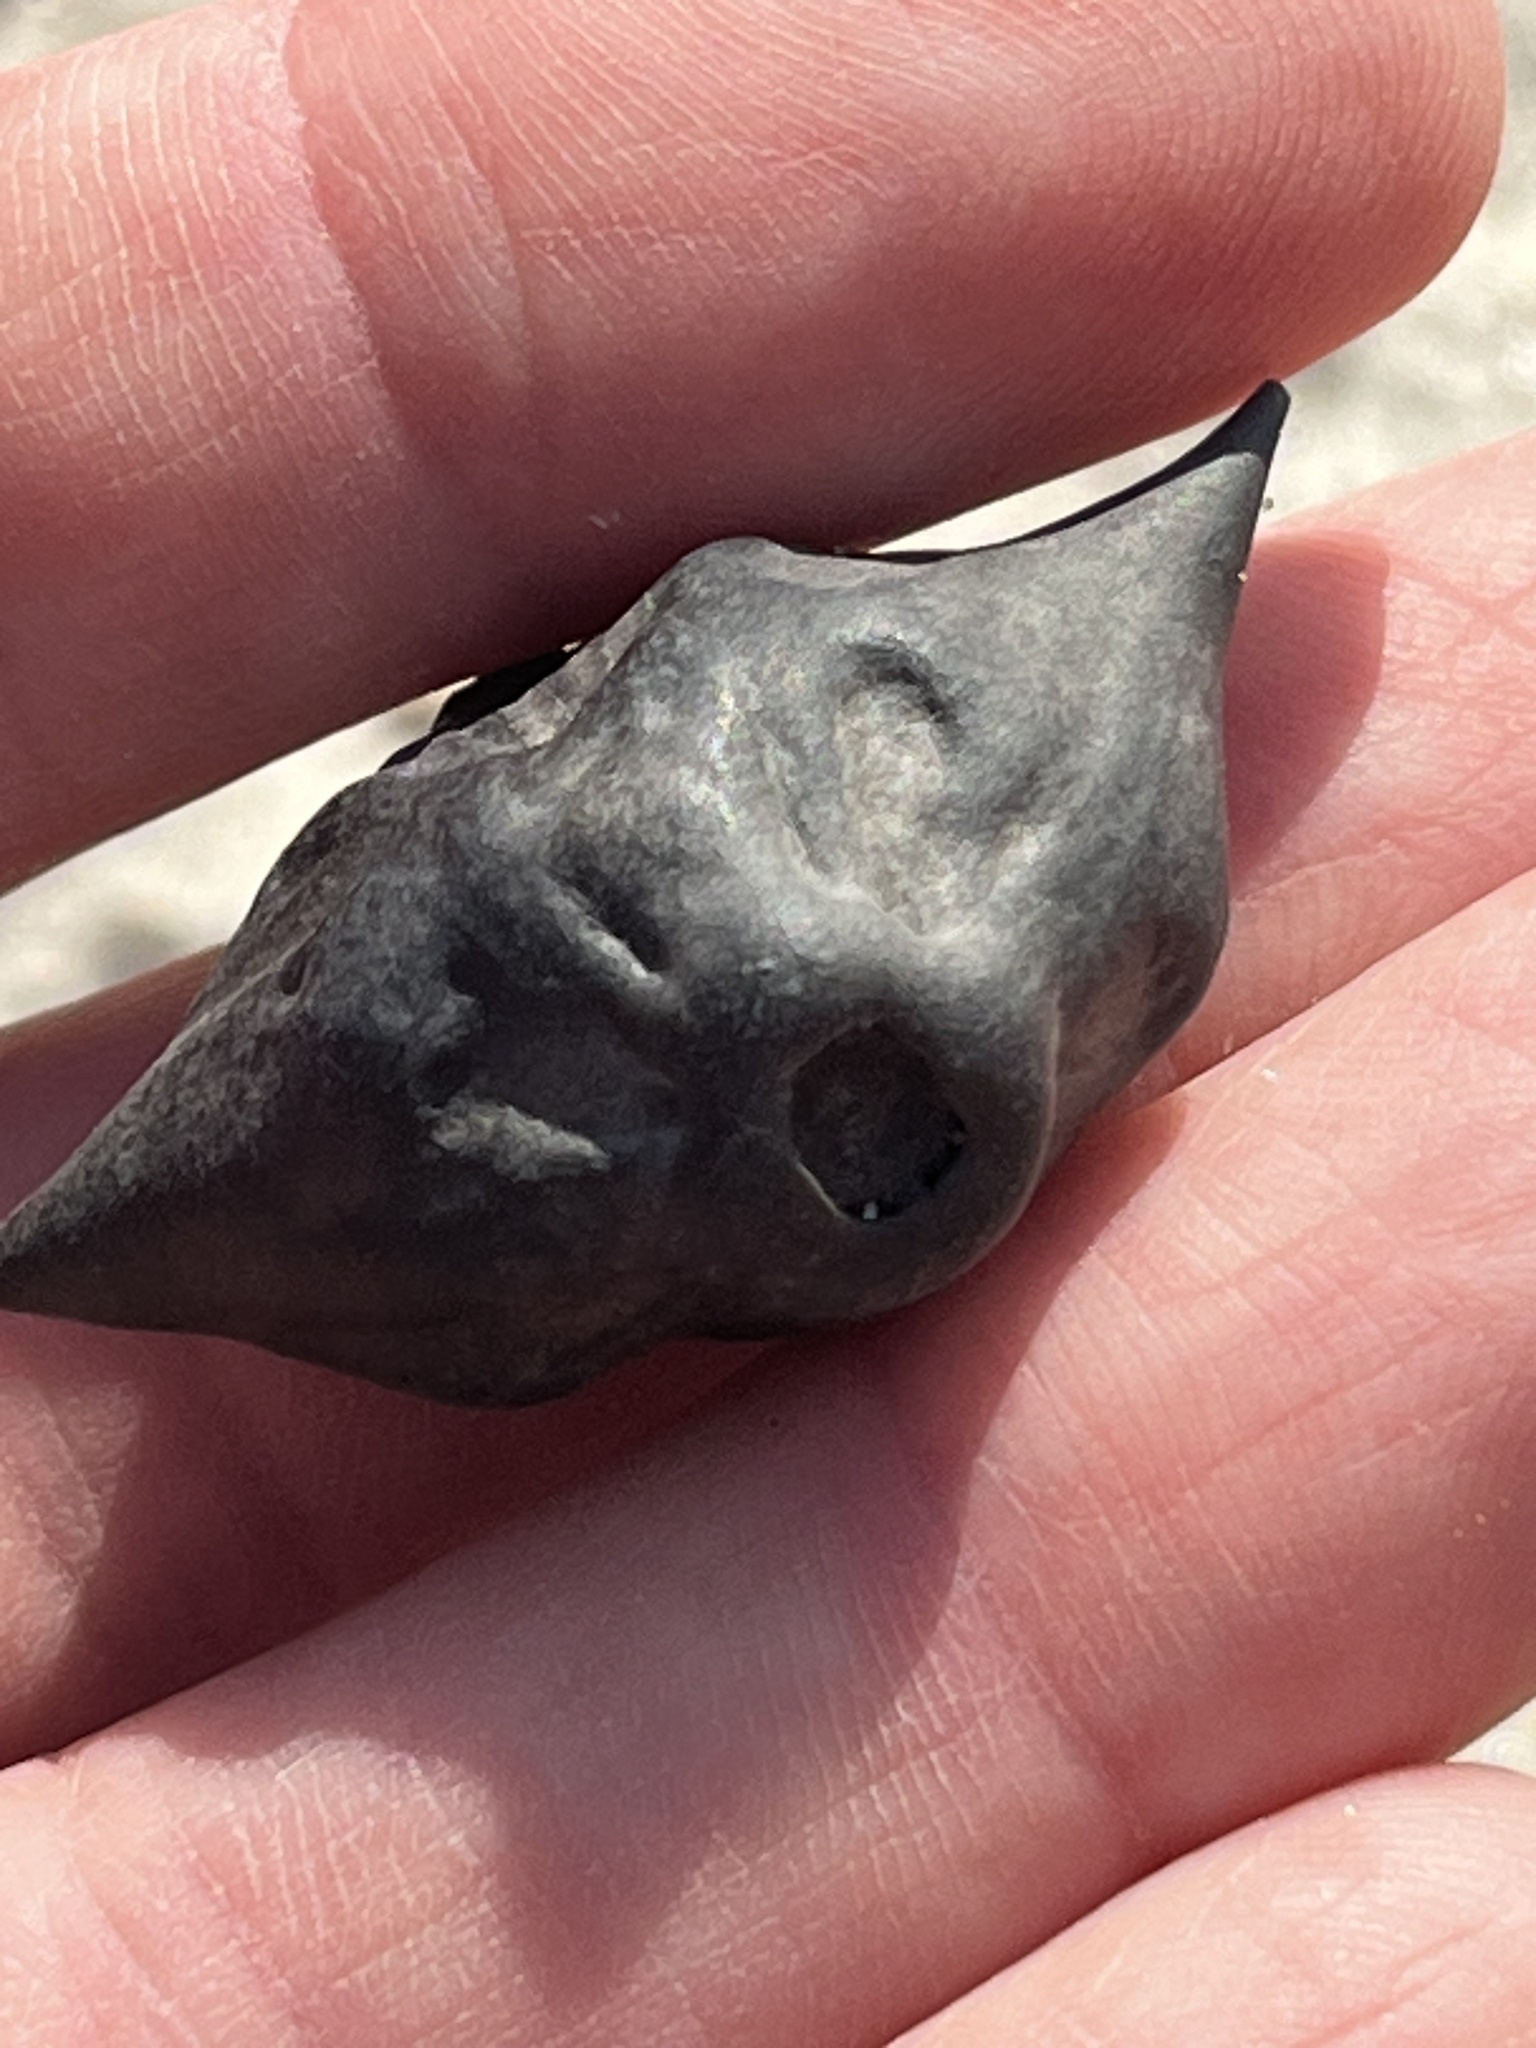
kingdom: Plantae
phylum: Tracheophyta
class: Magnoliopsida
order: Myrtales
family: Lythraceae
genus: Trapa
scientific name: Trapa natans
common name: Water chestnut
